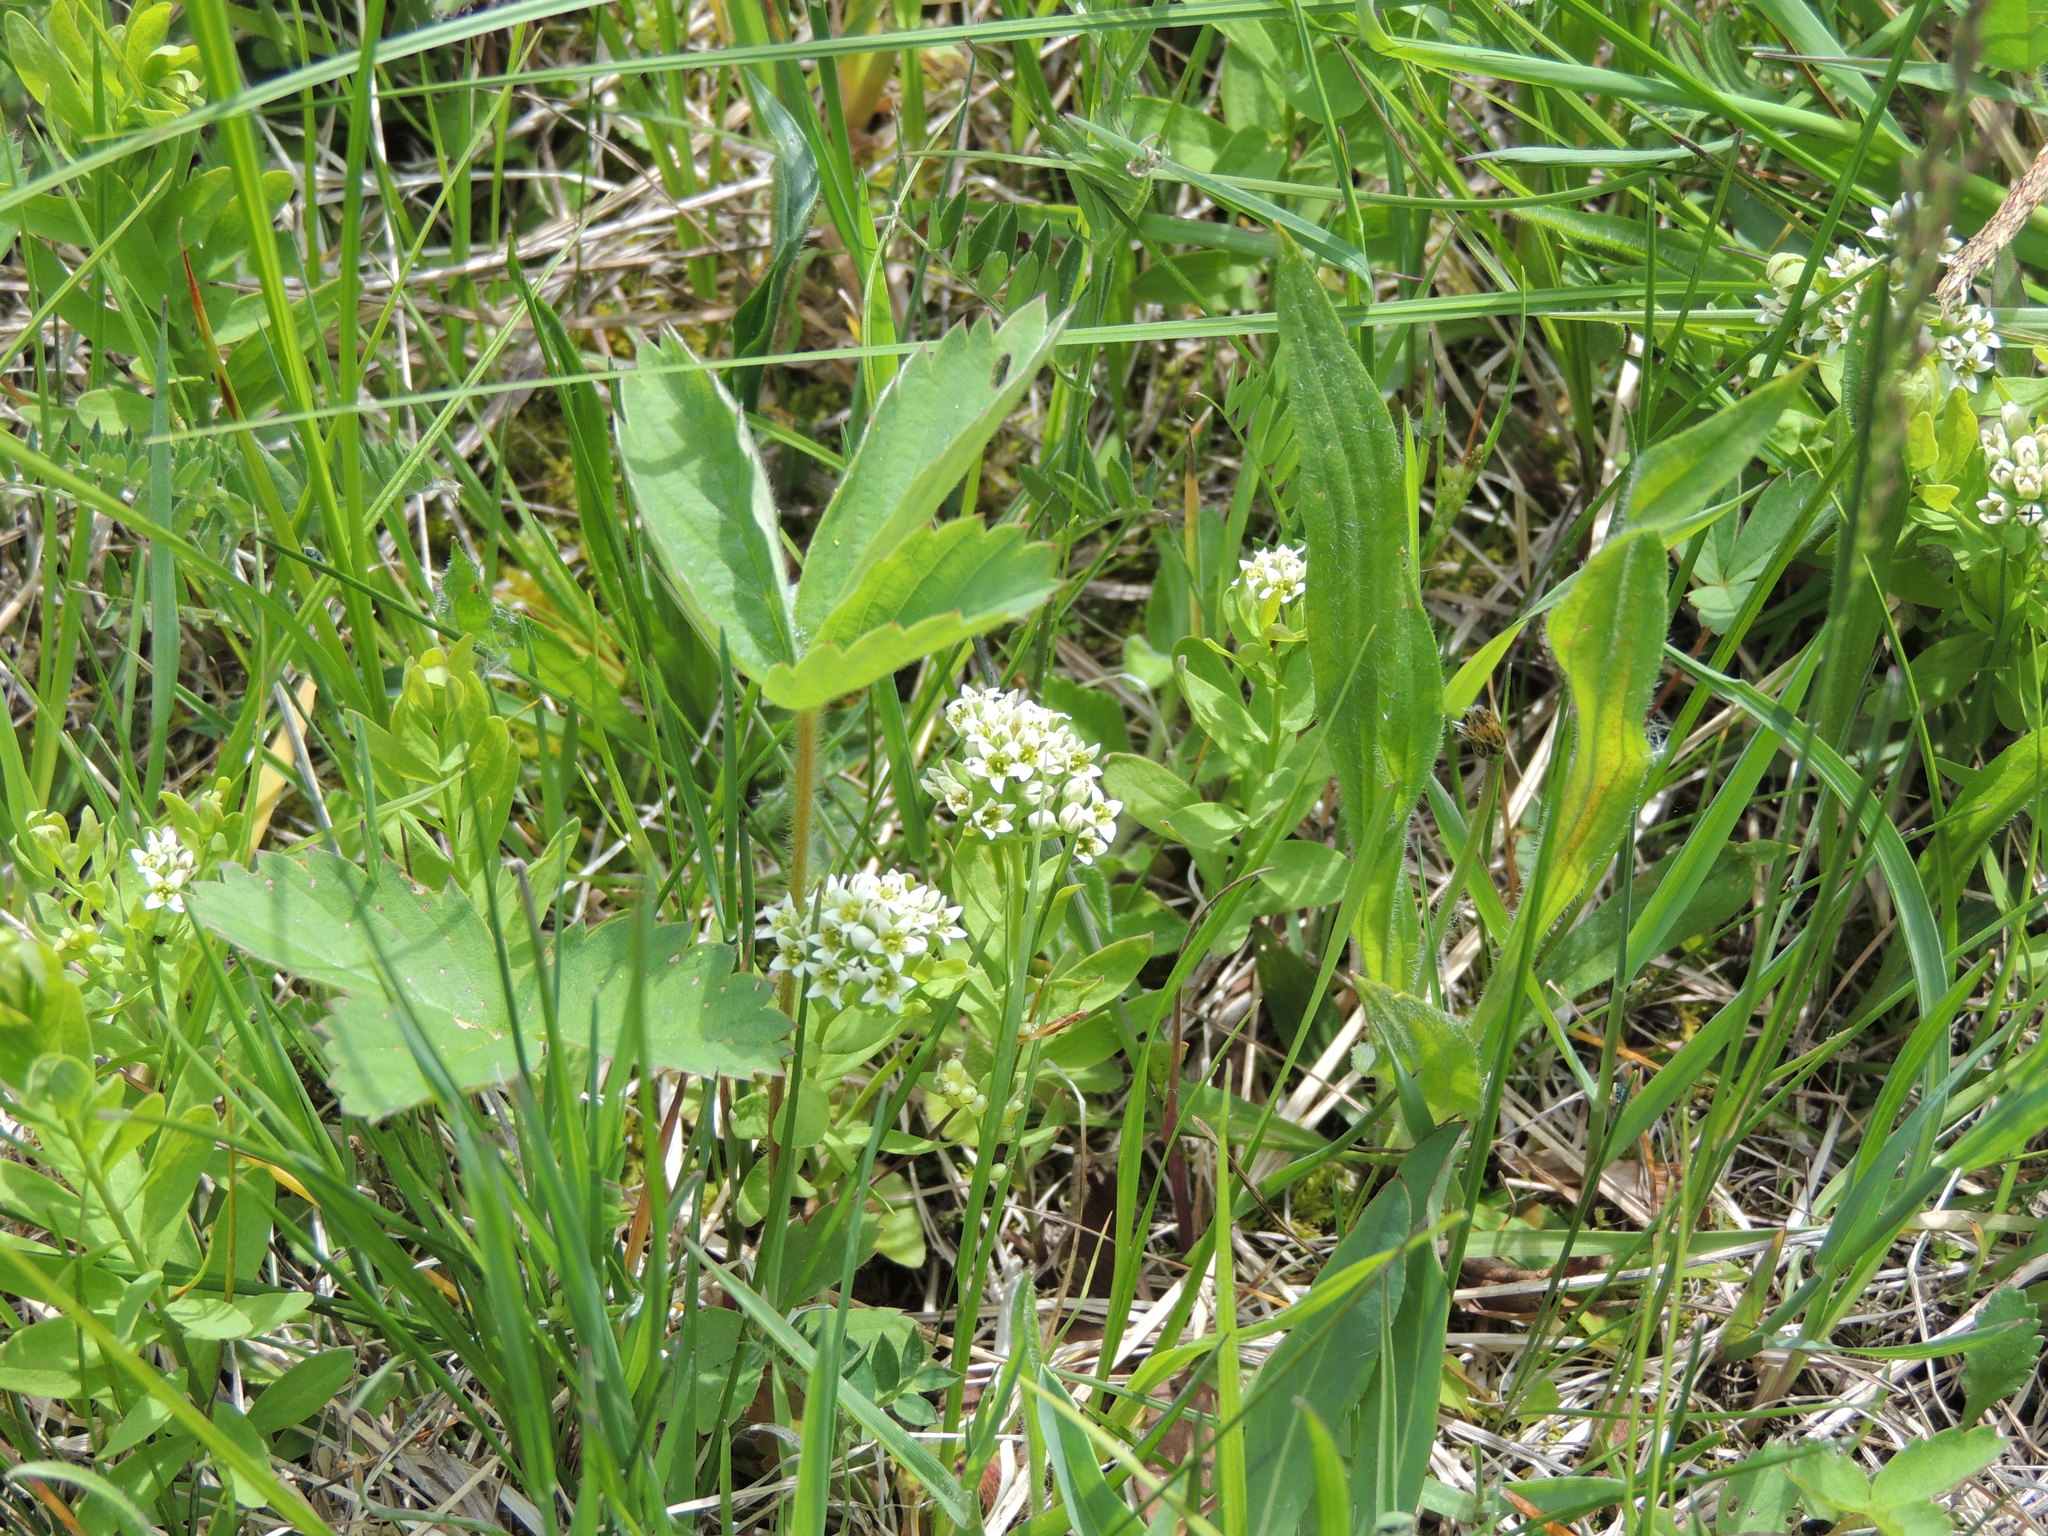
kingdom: Plantae
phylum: Tracheophyta
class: Magnoliopsida
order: Santalales
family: Comandraceae
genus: Comandra
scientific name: Comandra umbellata
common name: Bastard toadflax
